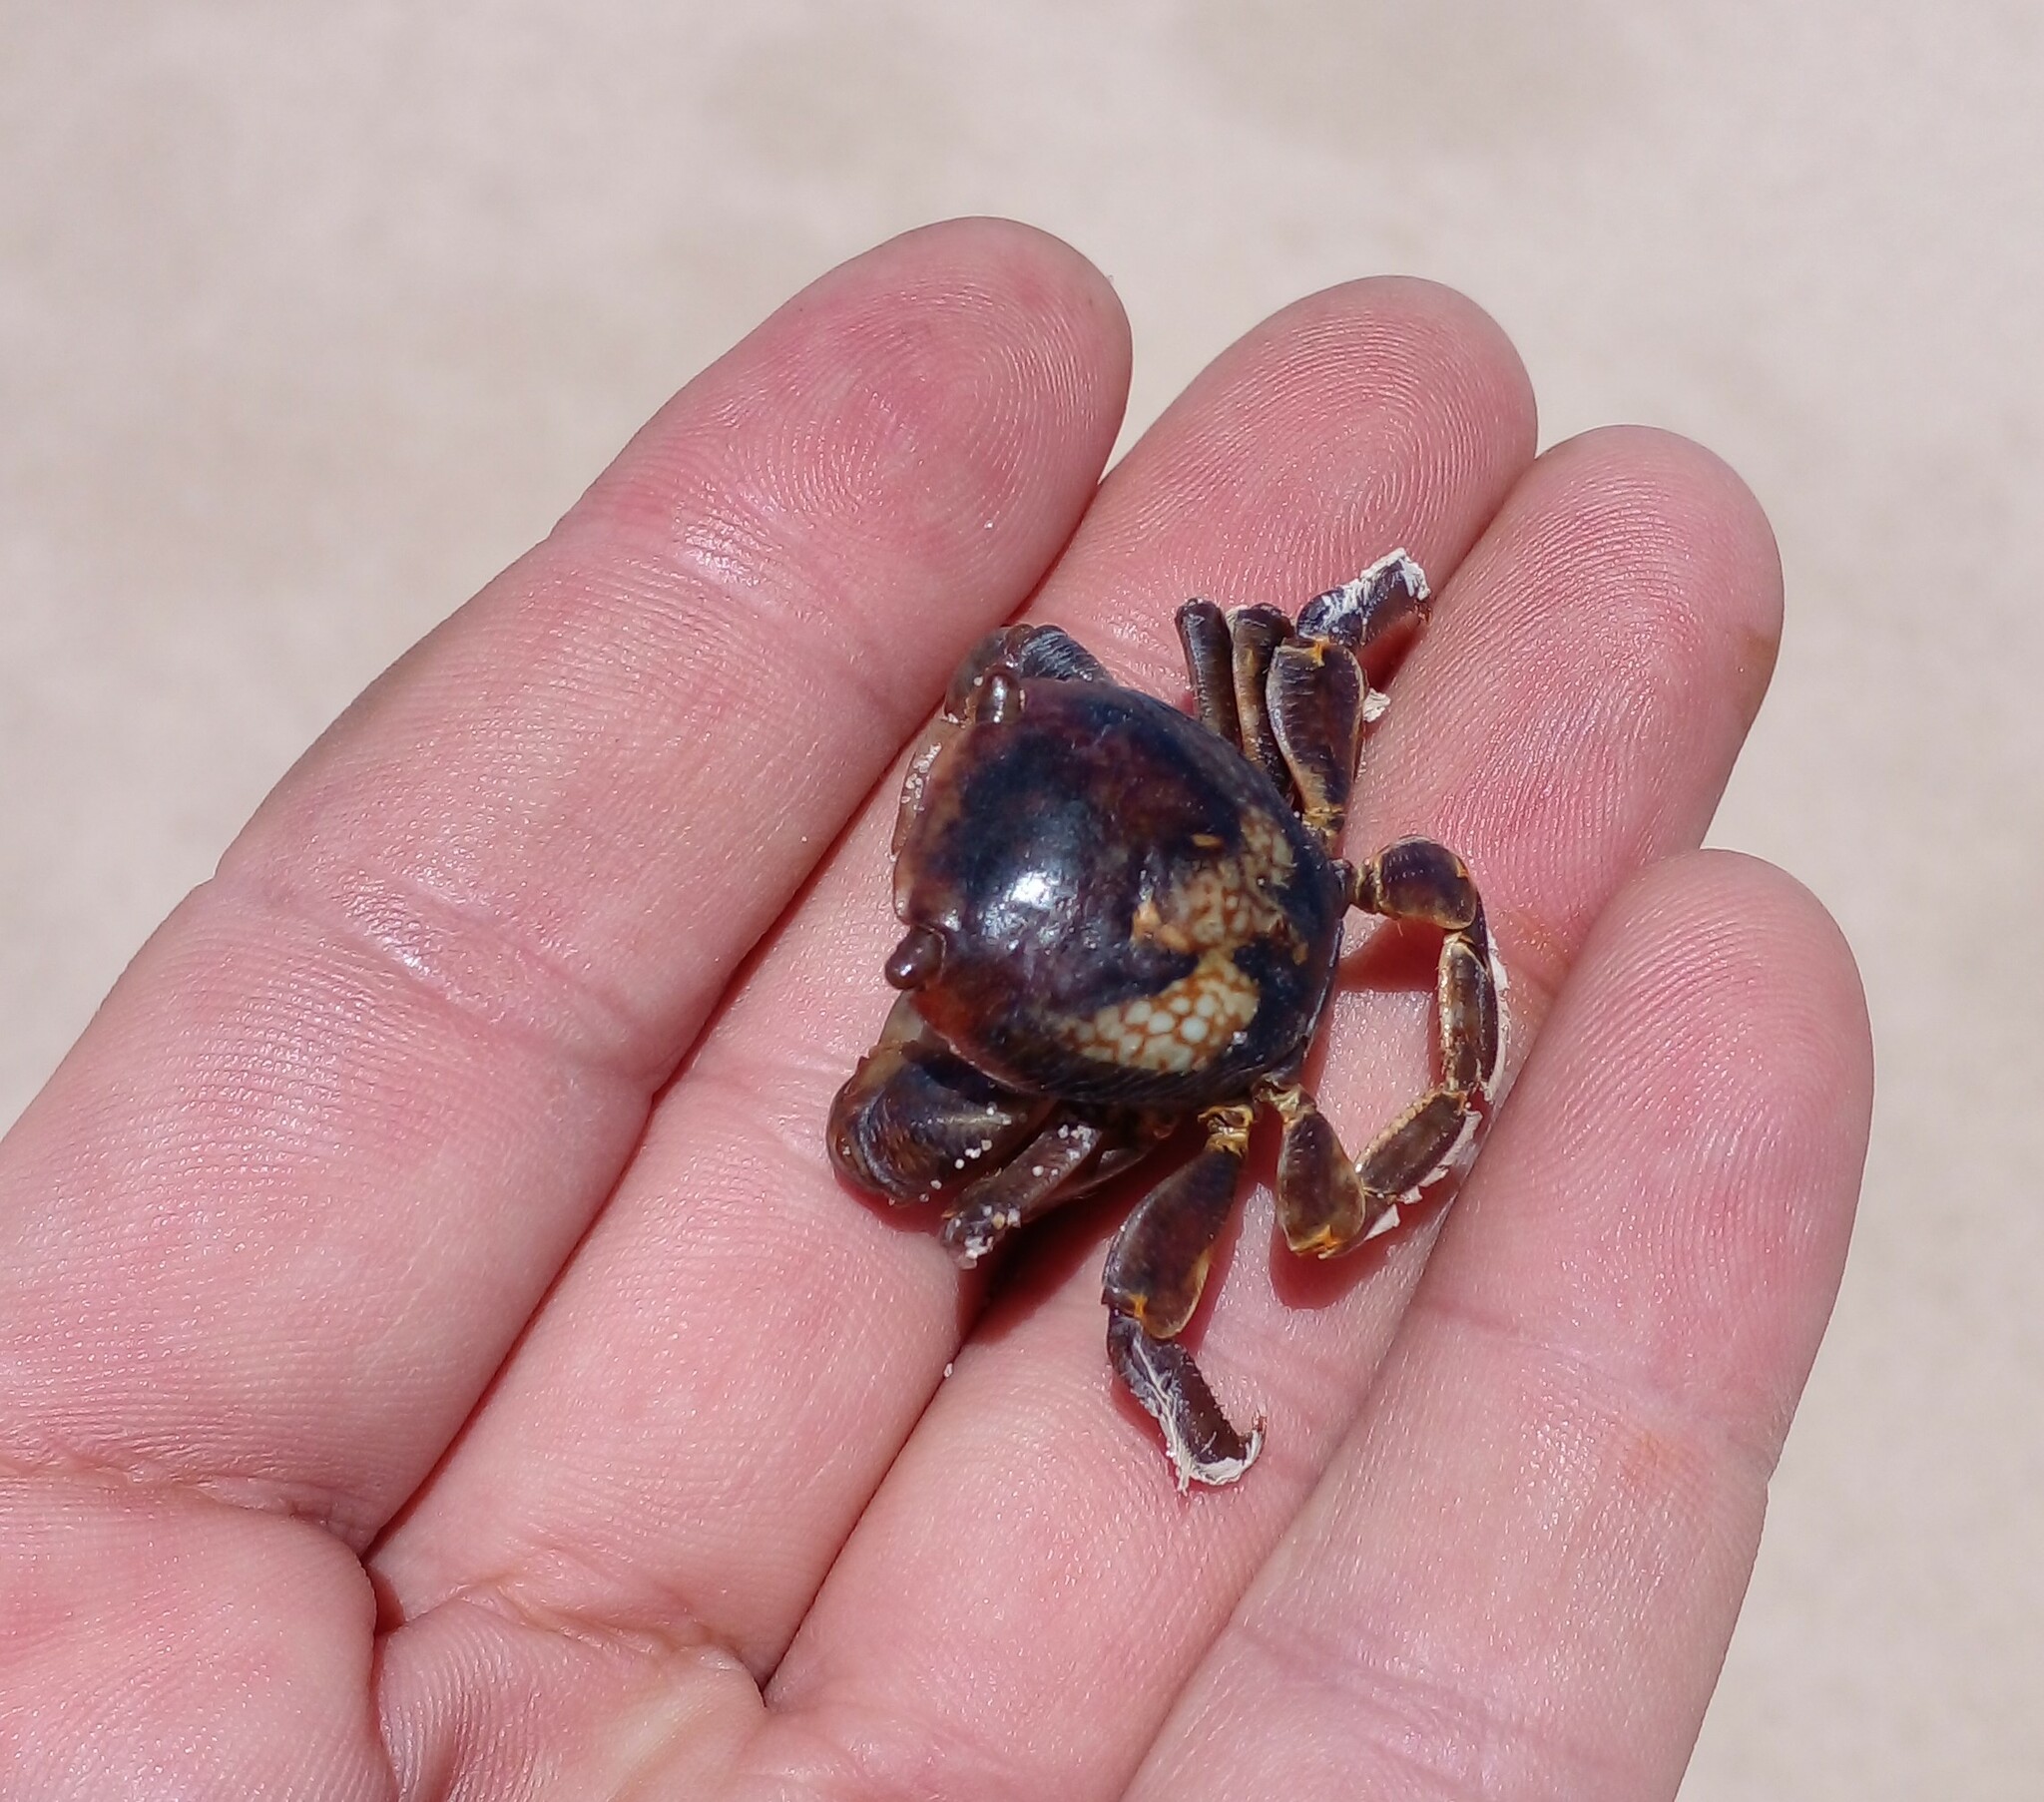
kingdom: Animalia
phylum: Arthropoda
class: Malacostraca
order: Decapoda
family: Grapsidae
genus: Planes
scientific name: Planes minutus
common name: Gulf weed crab
